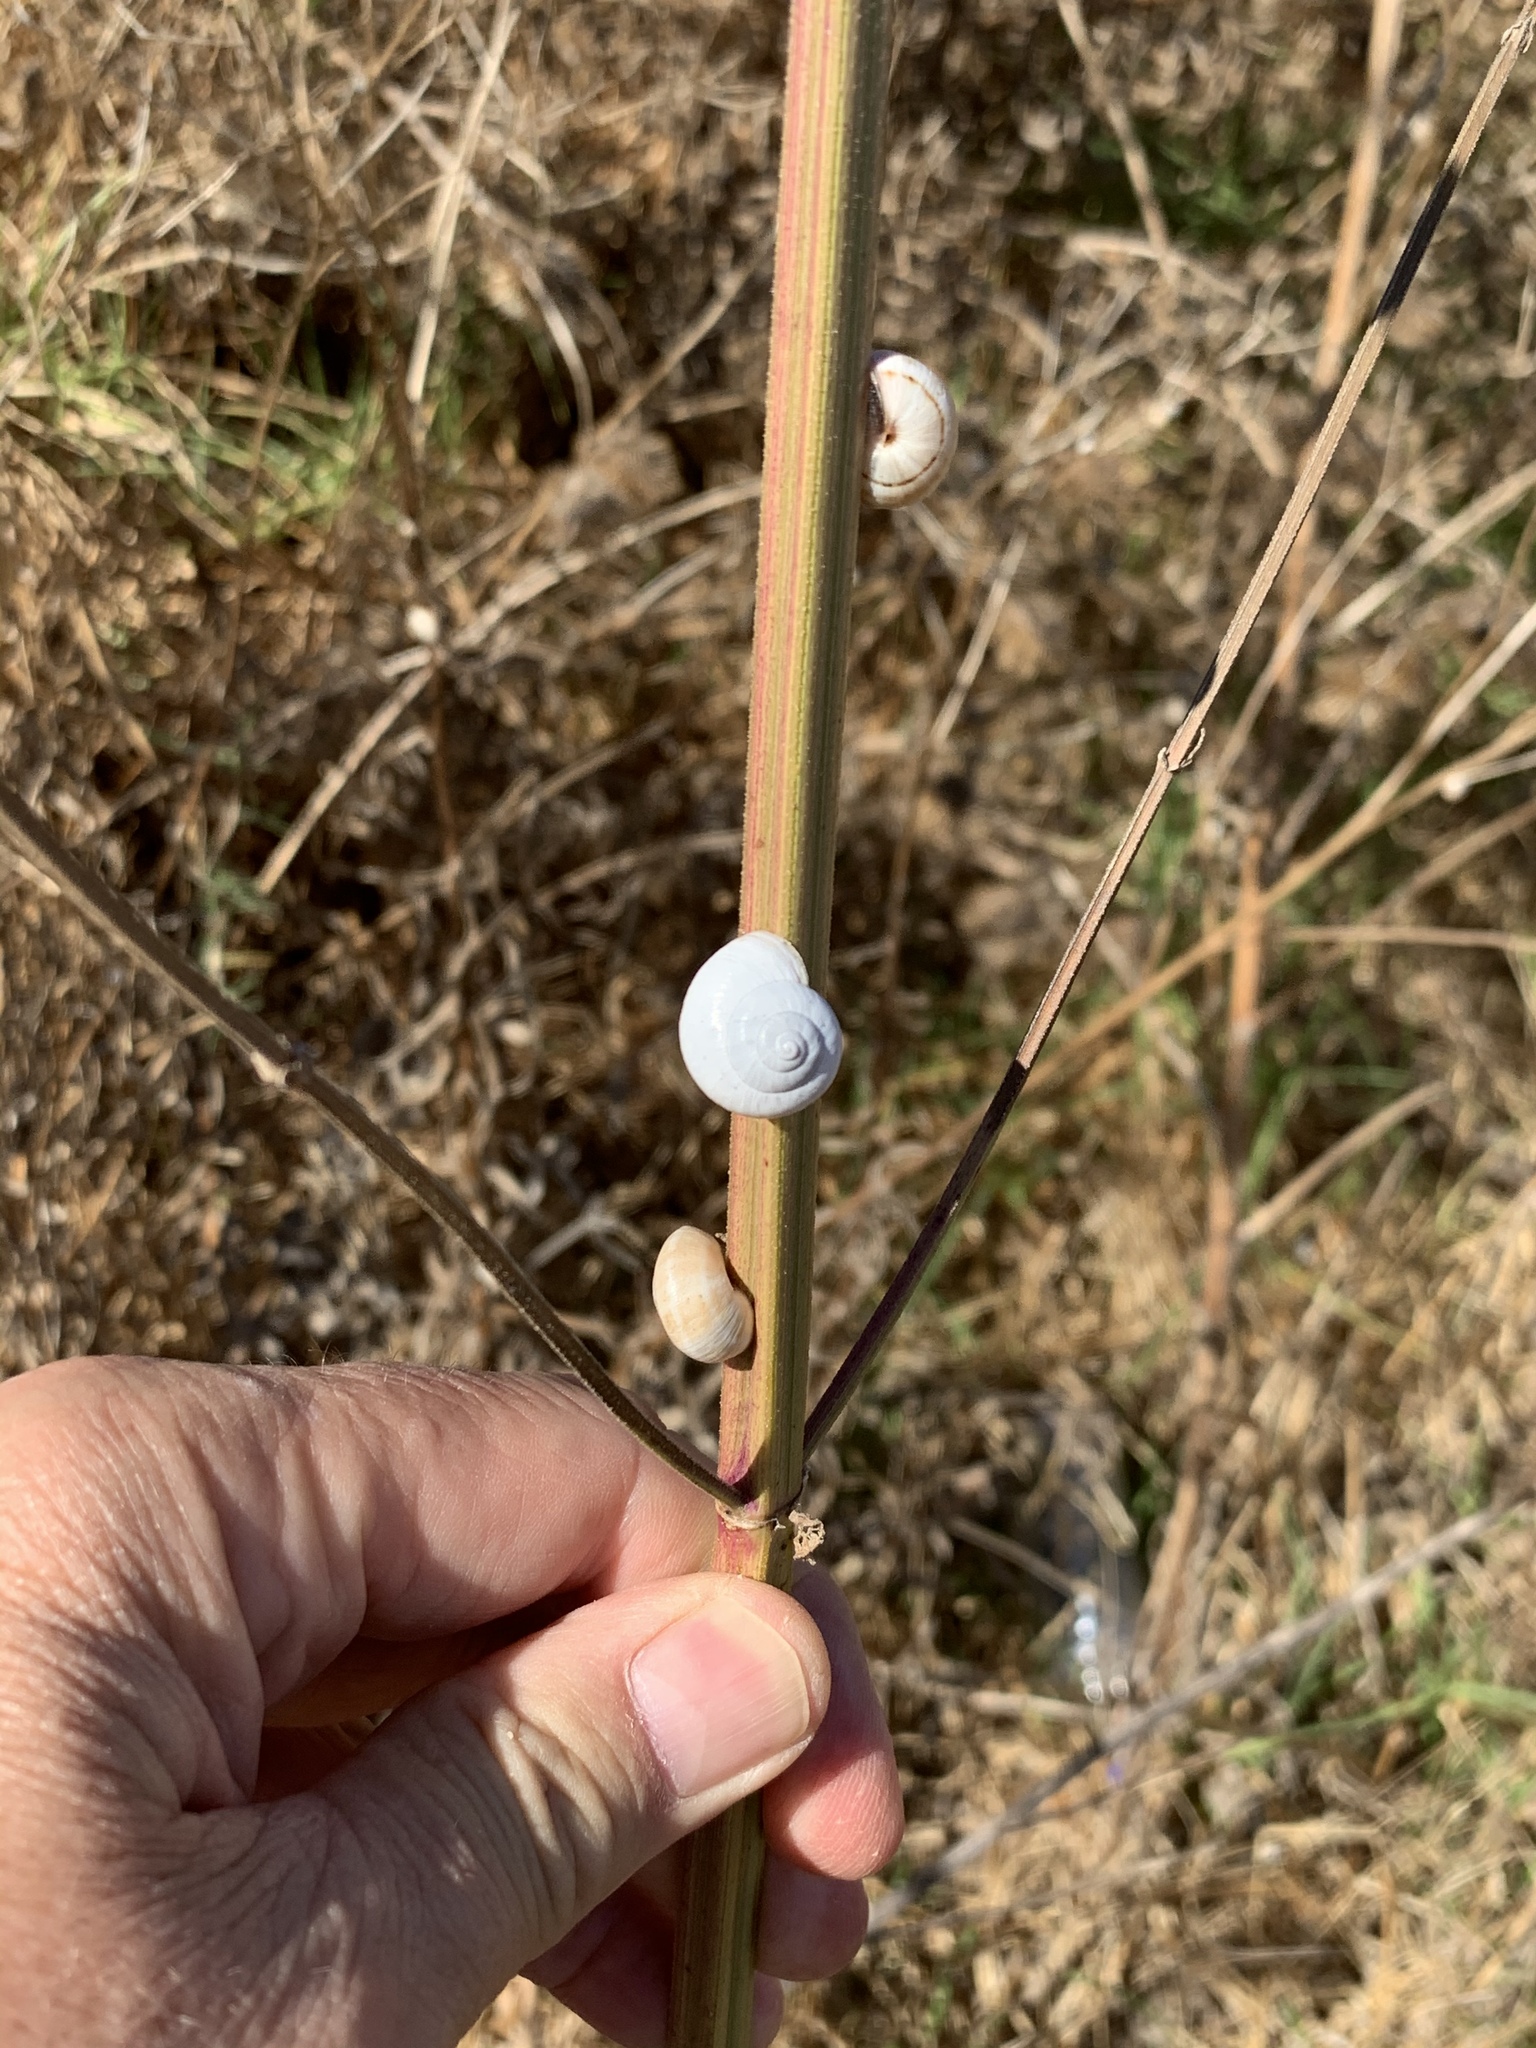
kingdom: Animalia
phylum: Mollusca
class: Gastropoda
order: Stylommatophora
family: Helicidae
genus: Theba
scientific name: Theba pisana
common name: White snail
